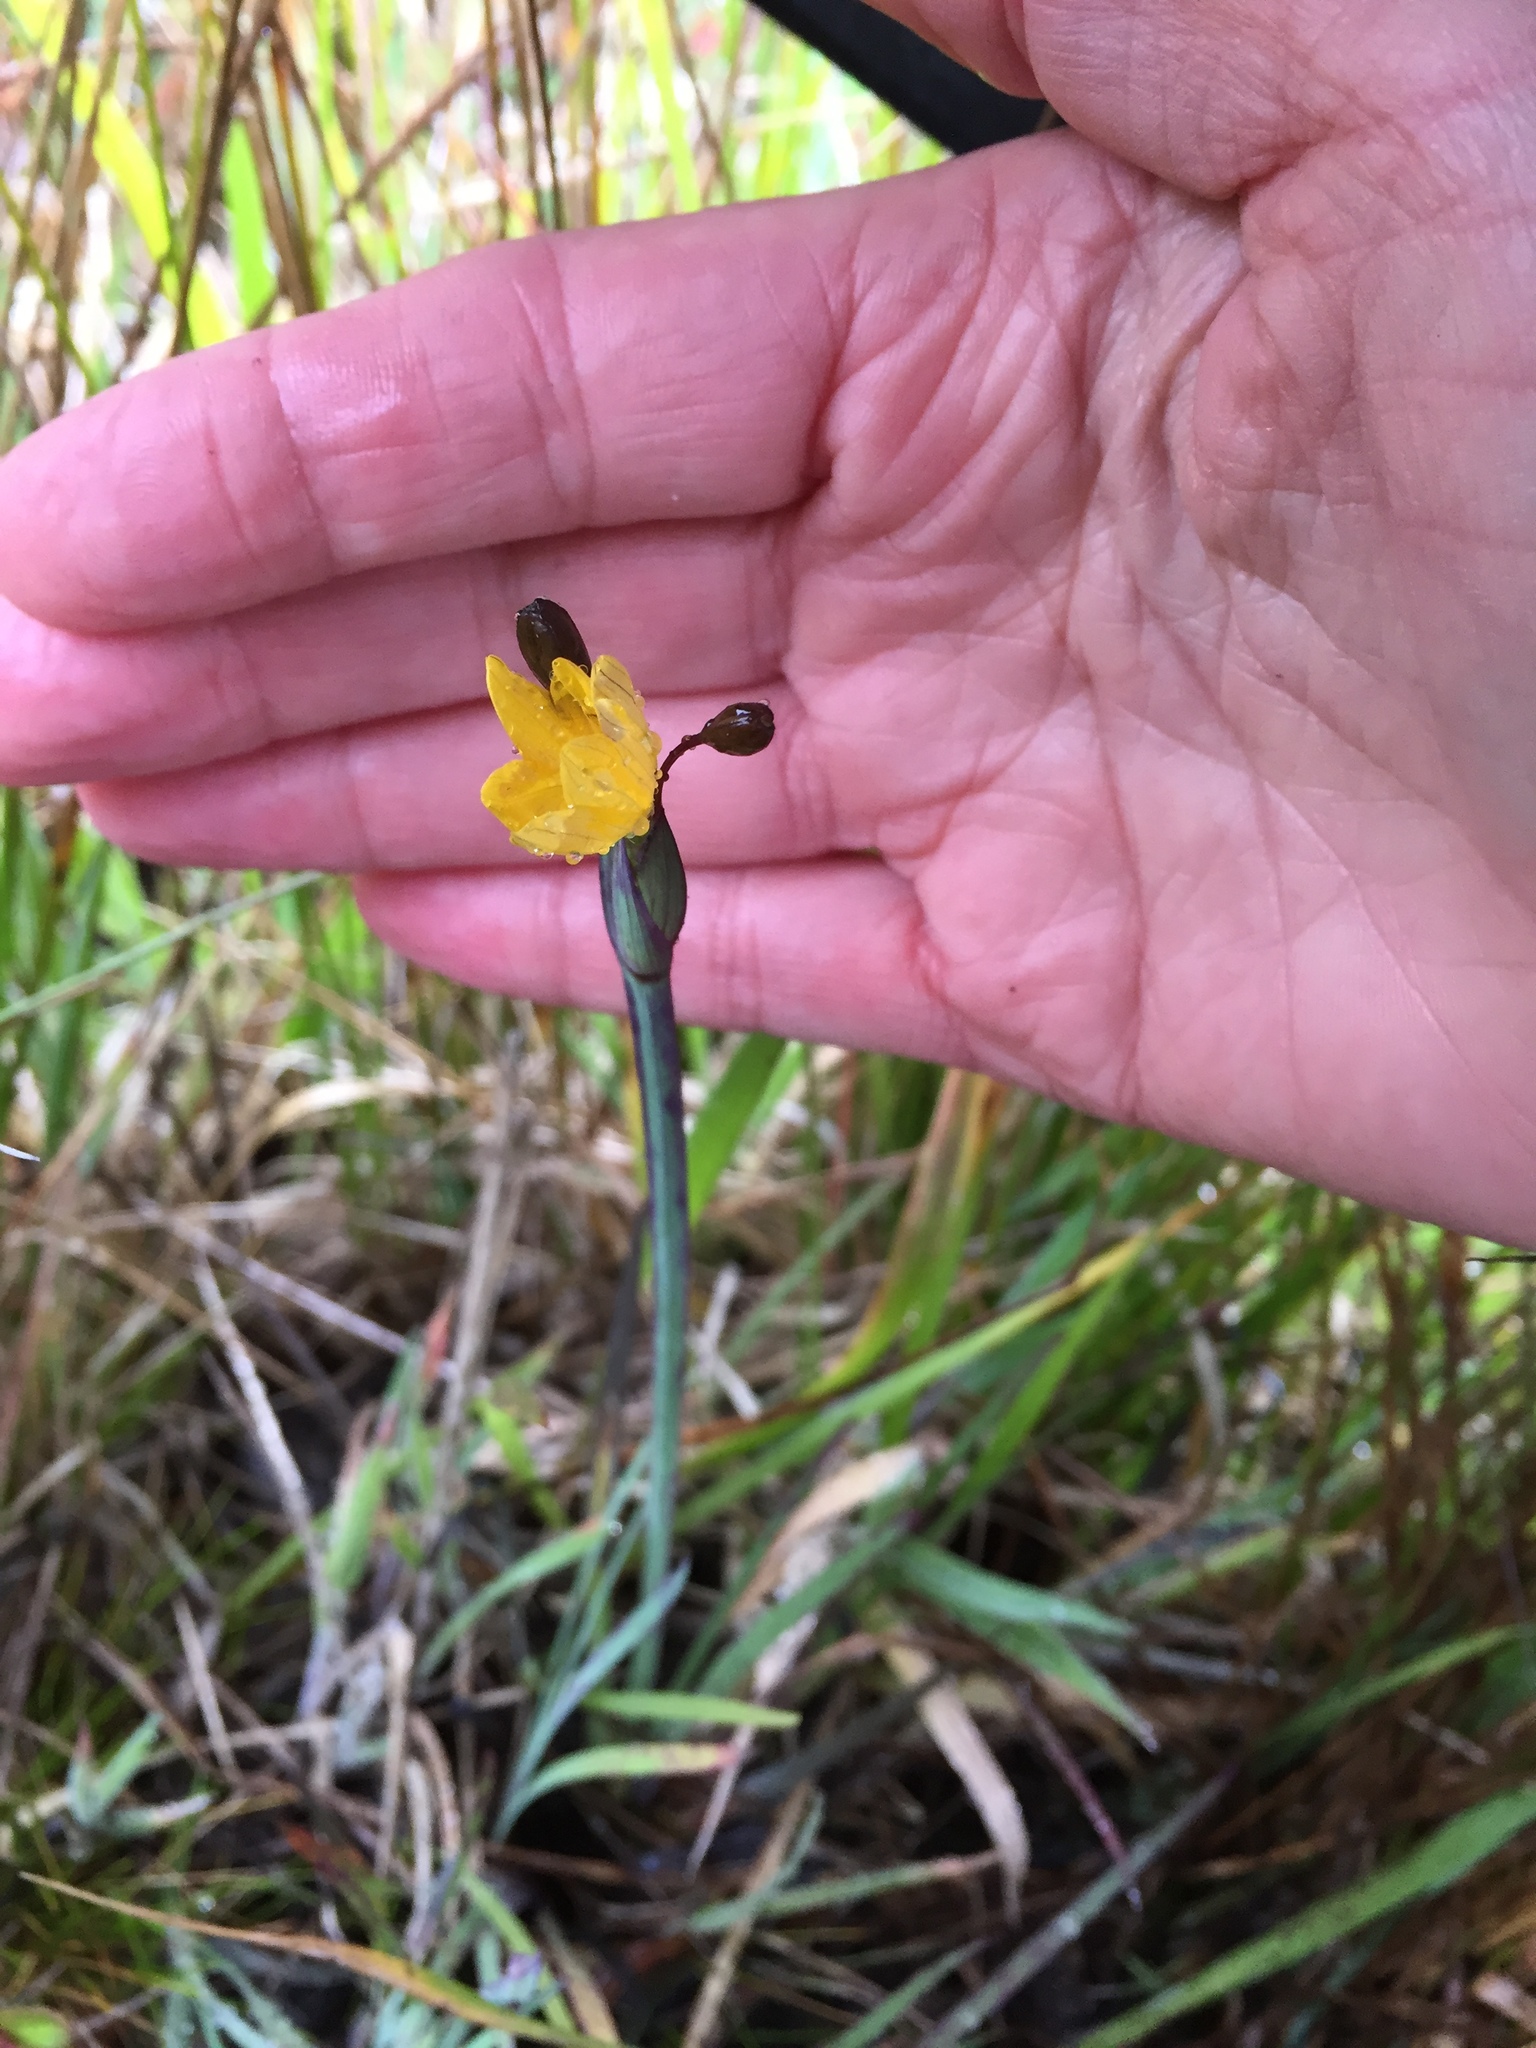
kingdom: Plantae
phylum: Tracheophyta
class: Liliopsida
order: Asparagales
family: Iridaceae
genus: Sisyrinchium
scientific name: Sisyrinchium californicum
